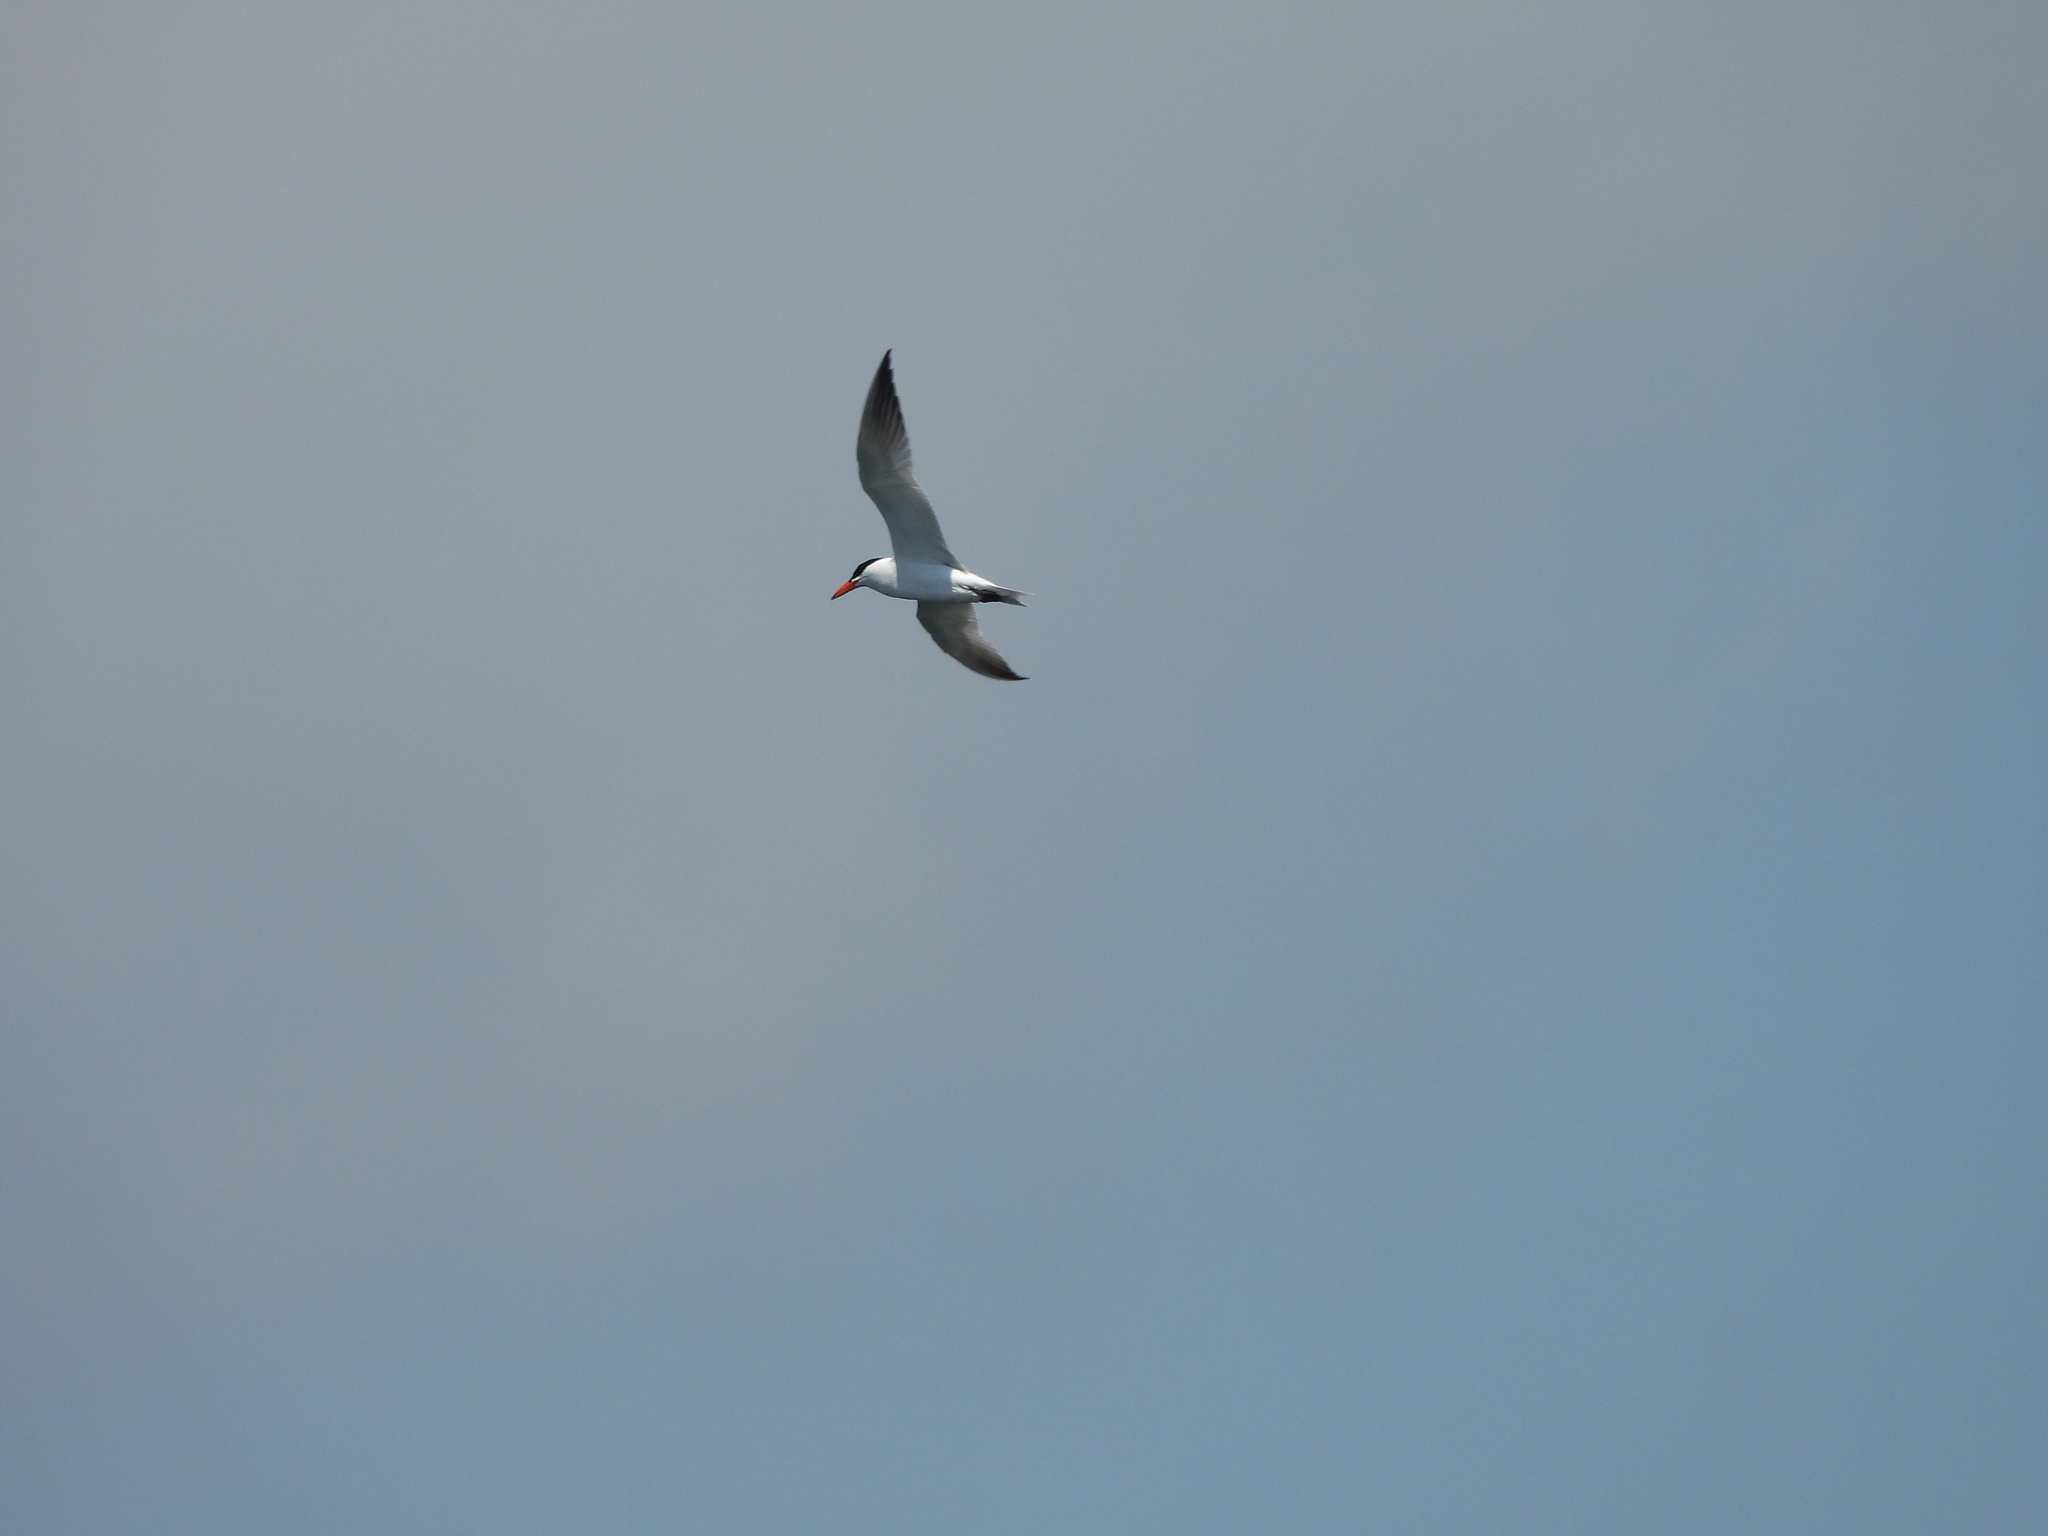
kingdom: Animalia
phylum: Chordata
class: Aves
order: Charadriiformes
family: Laridae
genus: Hydroprogne
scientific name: Hydroprogne caspia
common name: Caspian tern
